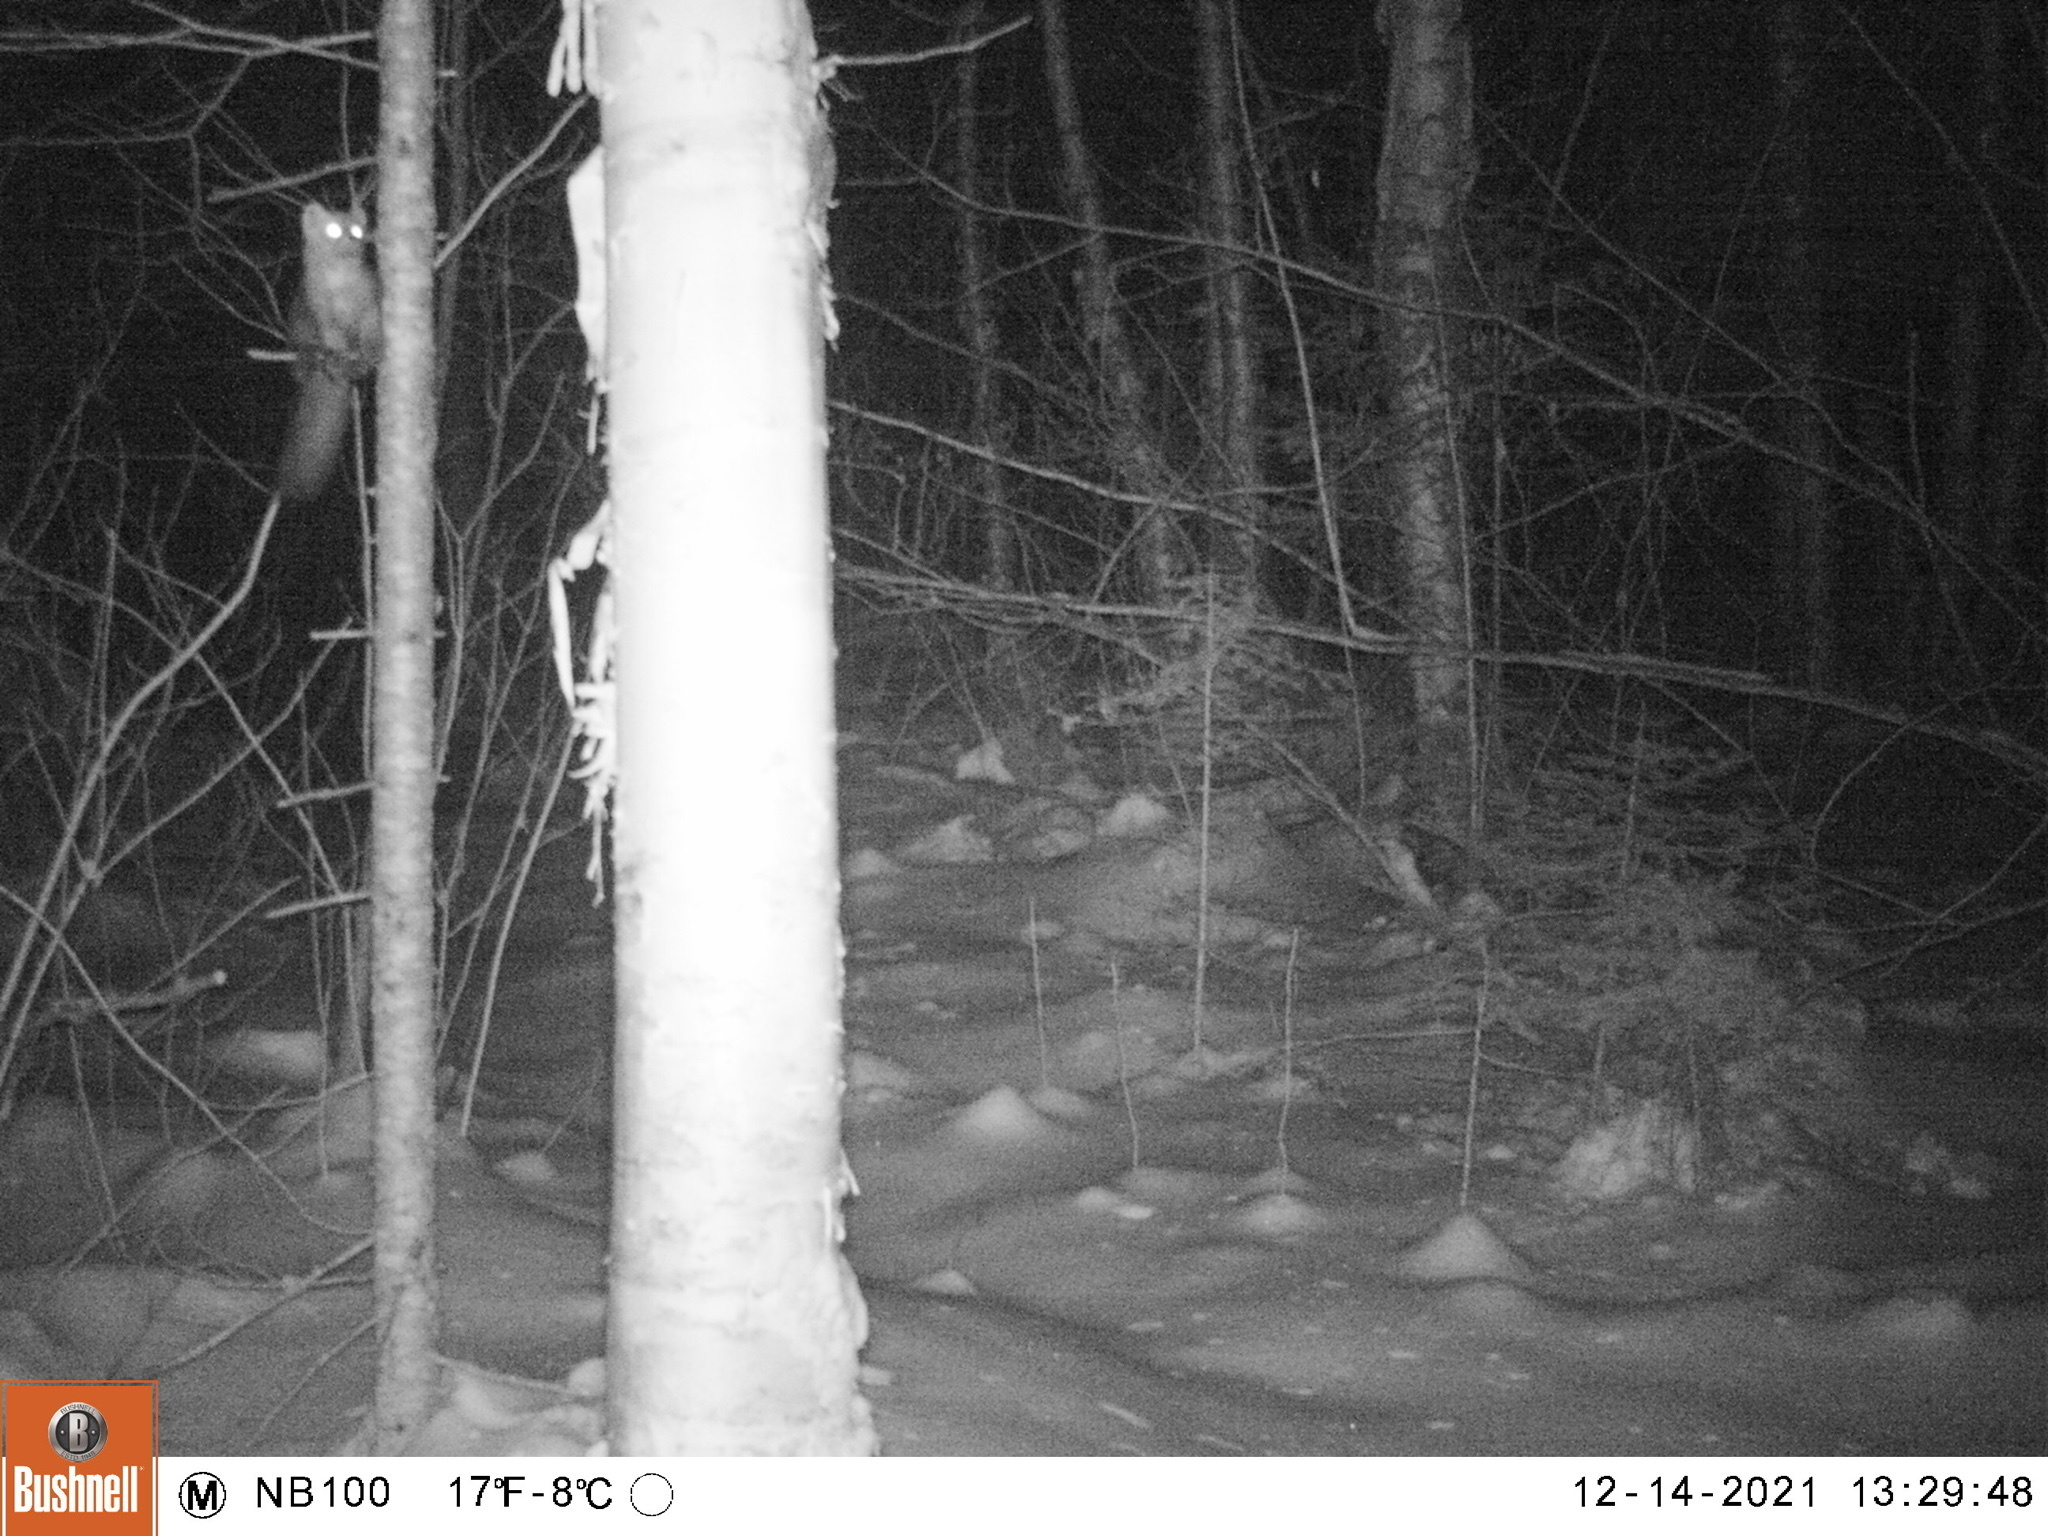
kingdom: Animalia
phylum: Chordata
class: Mammalia
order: Carnivora
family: Mustelidae
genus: Martes
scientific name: Martes americana
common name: American marten
